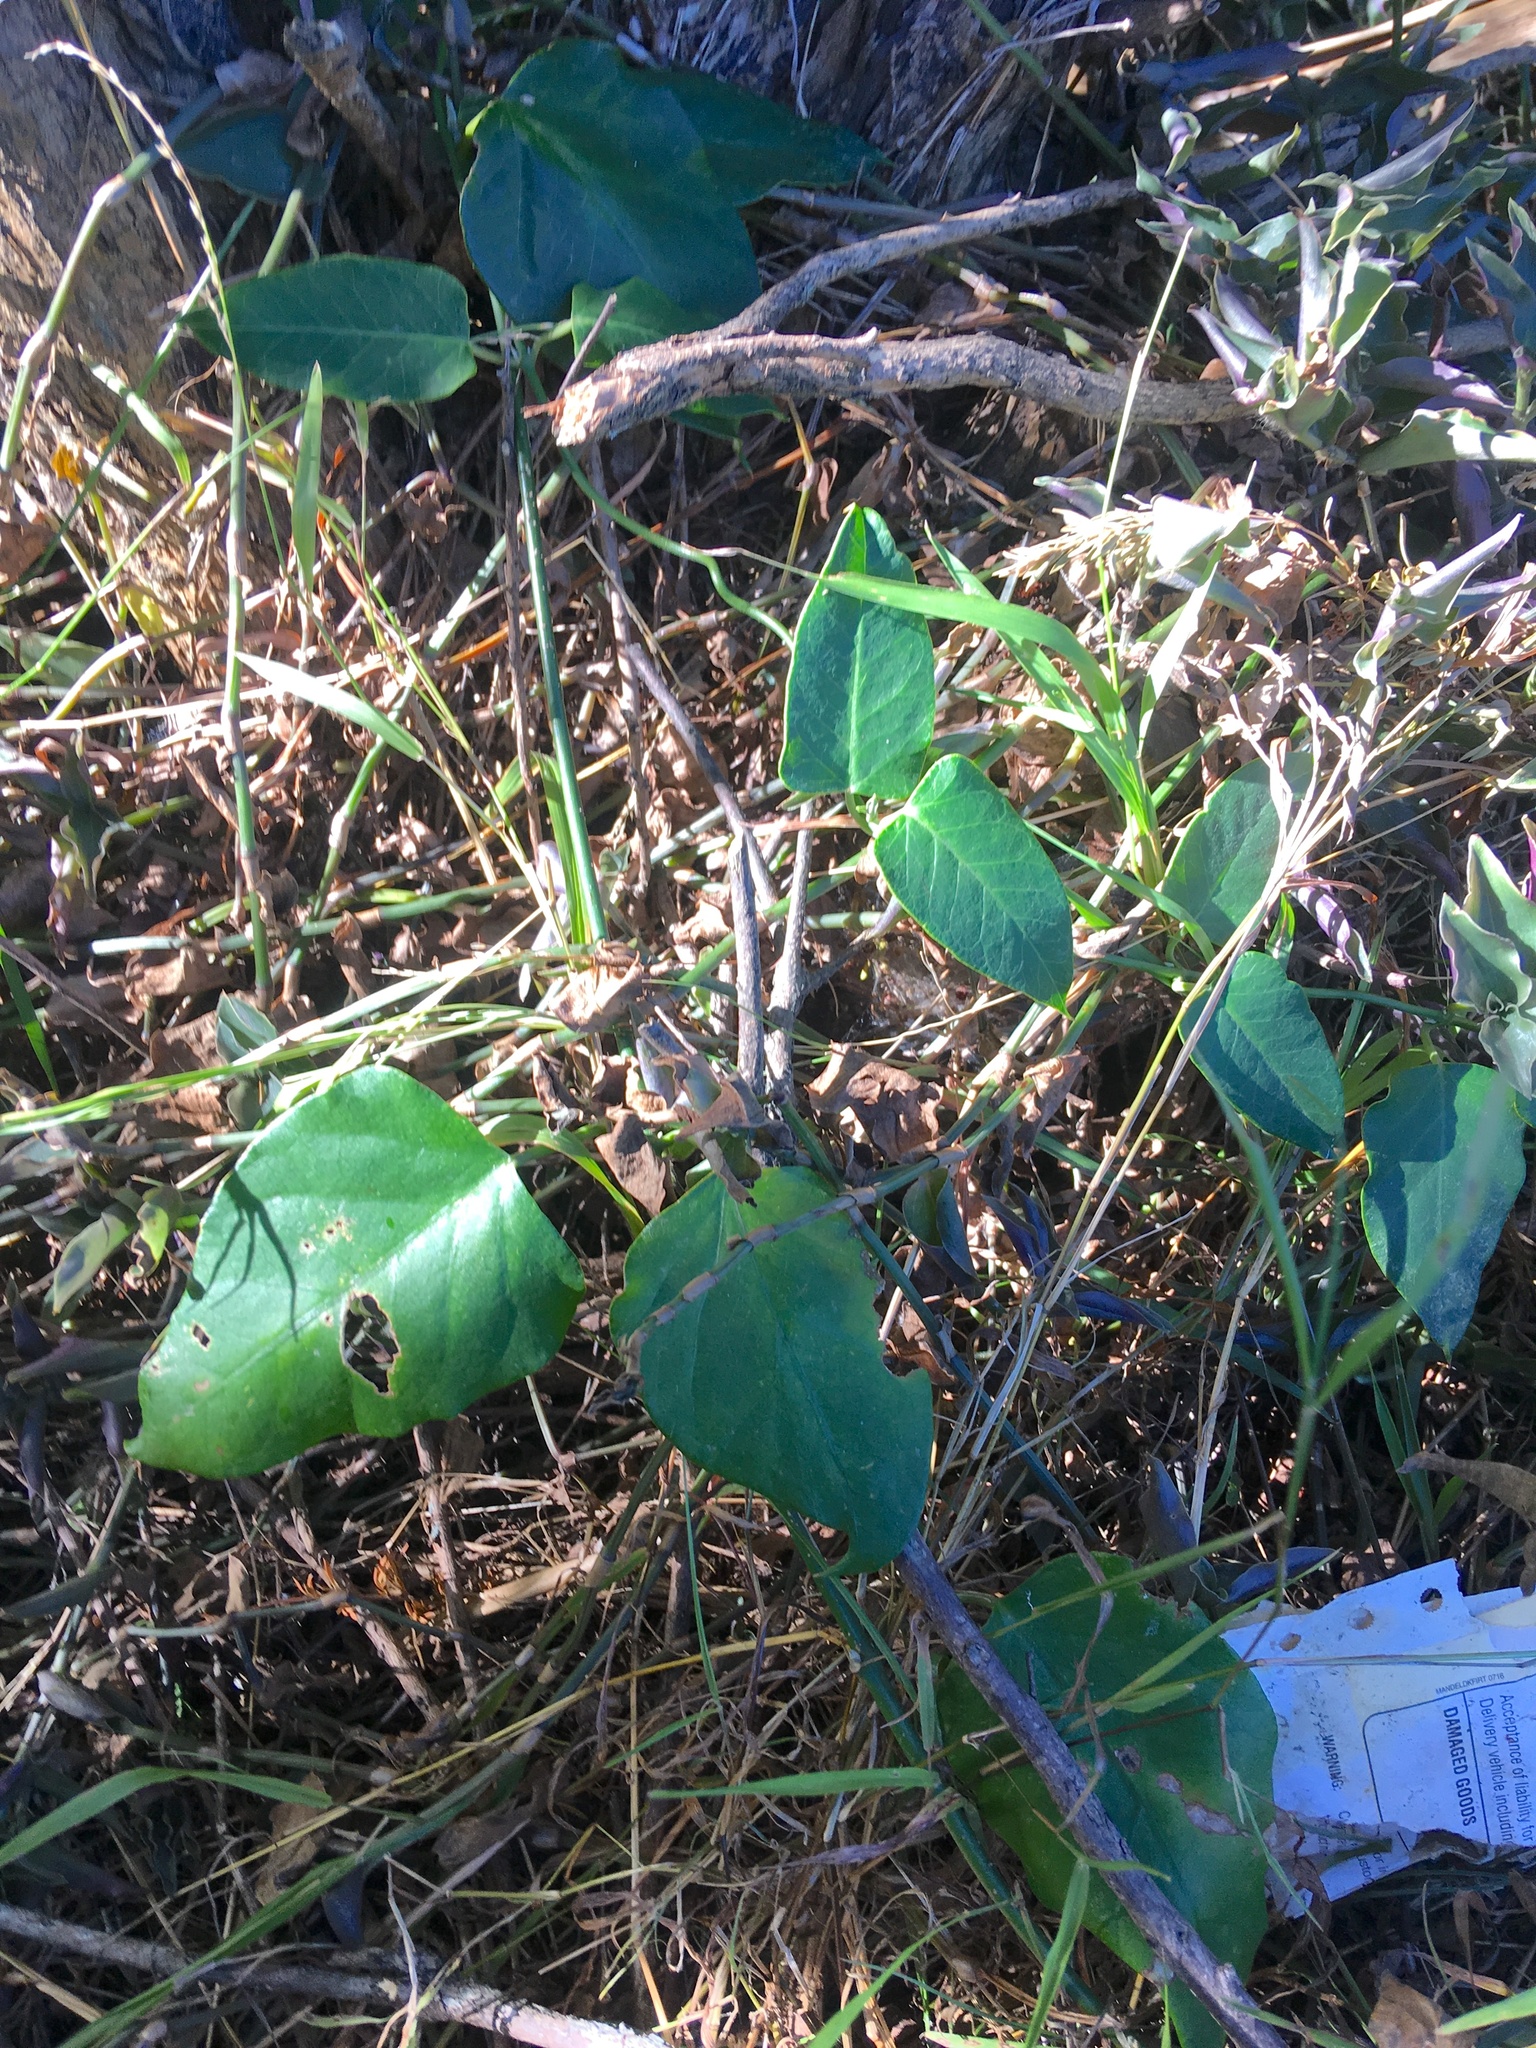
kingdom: Plantae
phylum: Tracheophyta
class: Magnoliopsida
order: Gentianales
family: Apocynaceae
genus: Araujia
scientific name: Araujia sericifera
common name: White bladderflower
